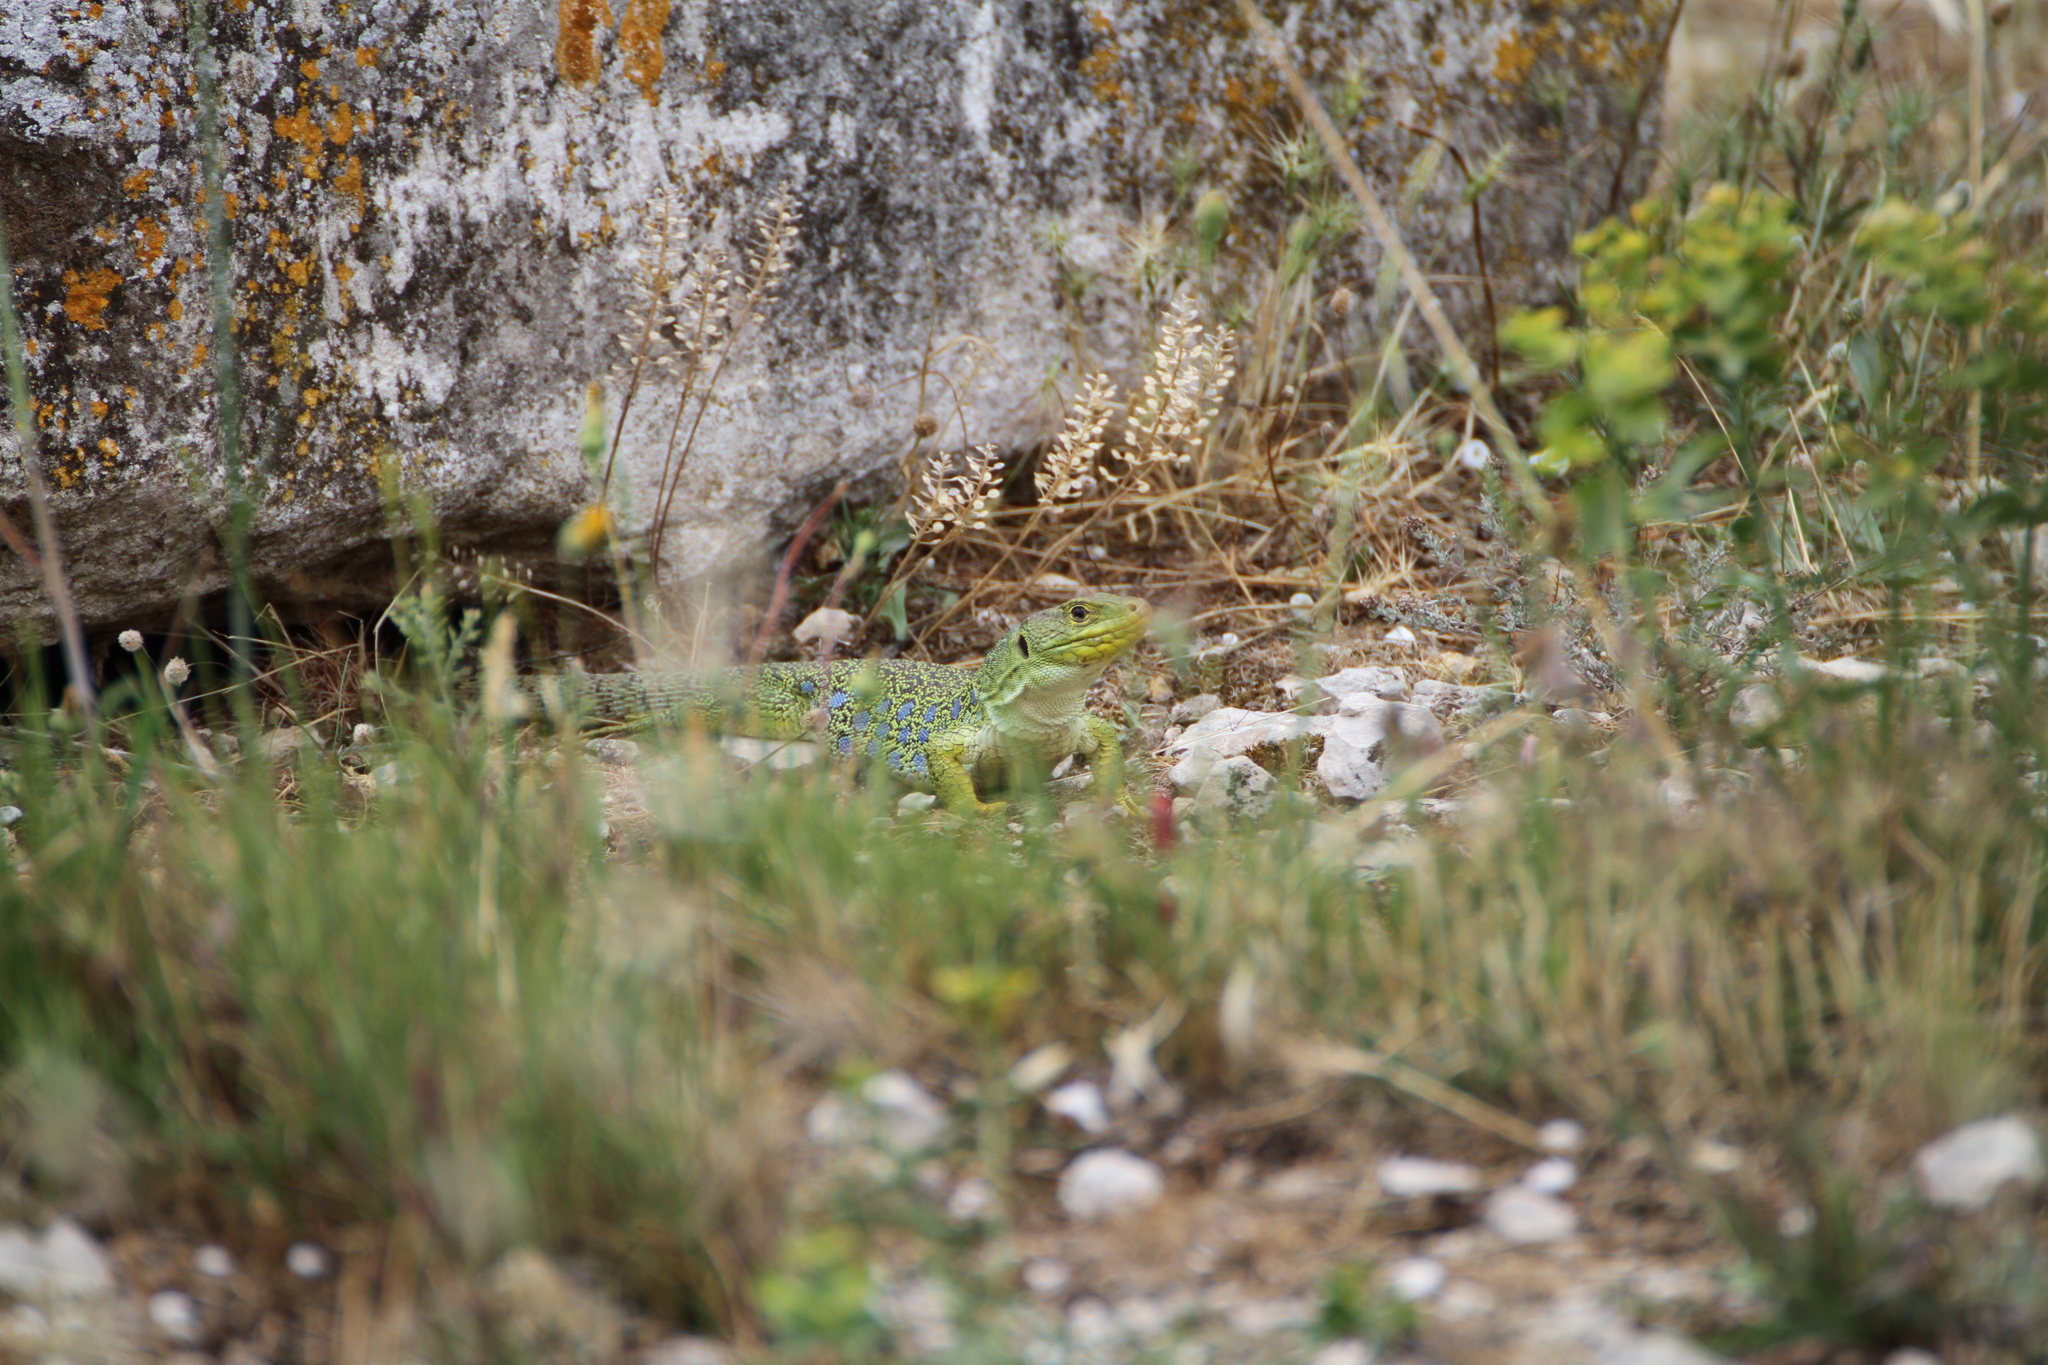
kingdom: Animalia
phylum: Chordata
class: Squamata
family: Lacertidae
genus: Timon
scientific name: Timon lepidus
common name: Ocellated lizard
